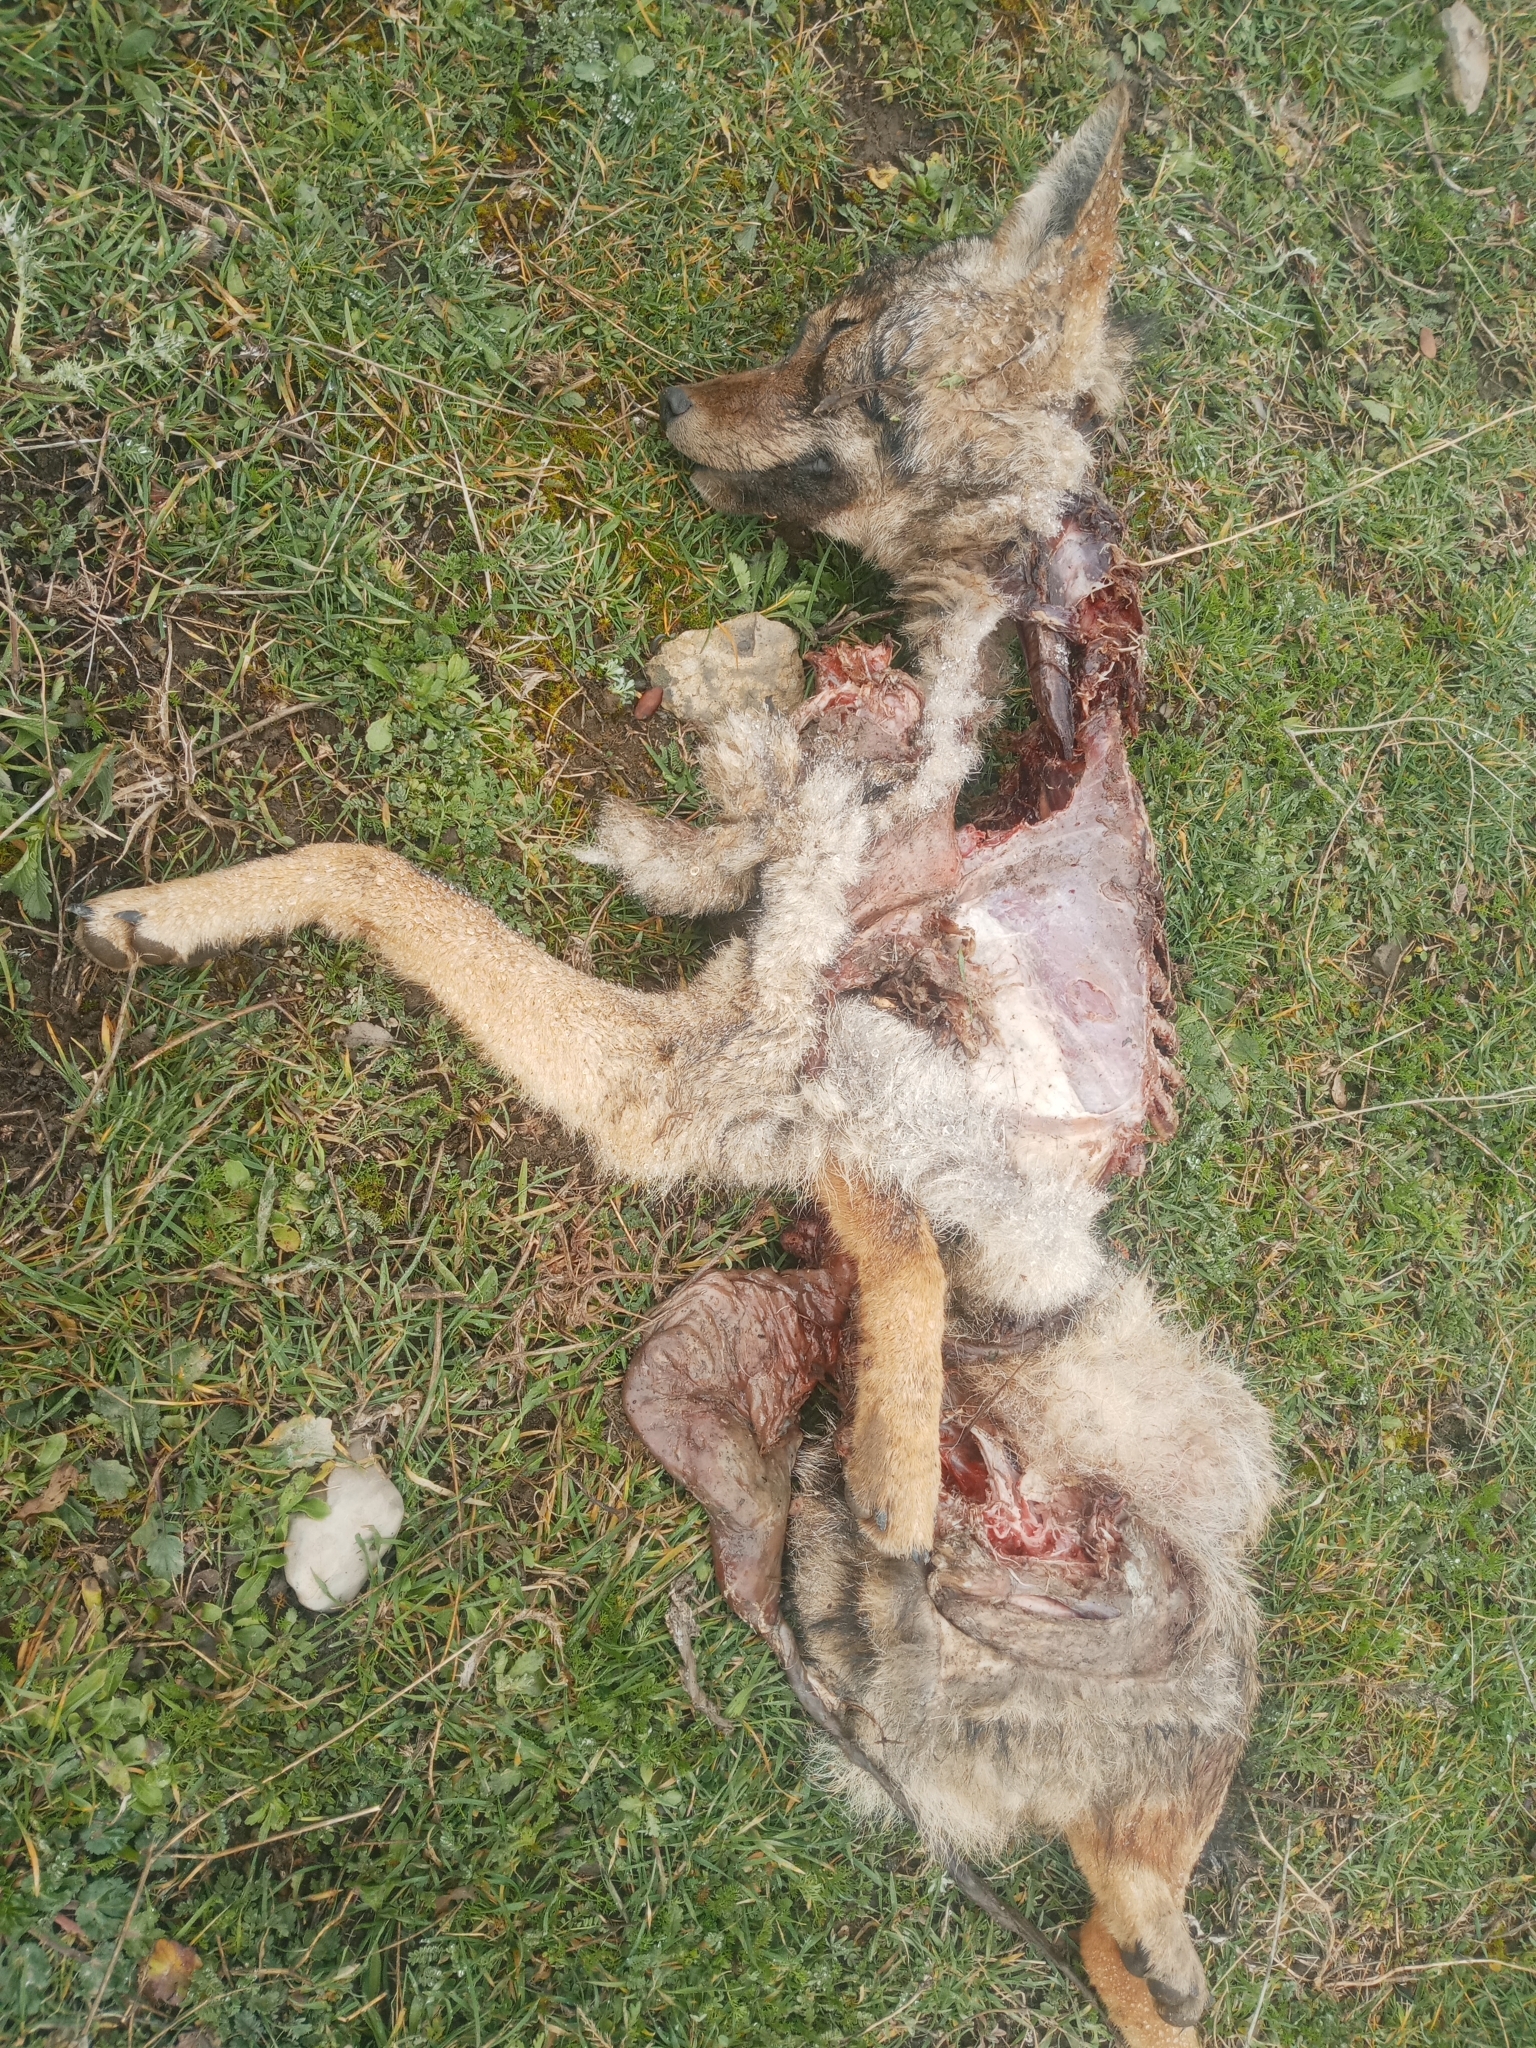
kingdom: Animalia
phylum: Chordata
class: Mammalia
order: Carnivora
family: Canidae
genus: Canis
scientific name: Canis lupaster
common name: African golden wolf
